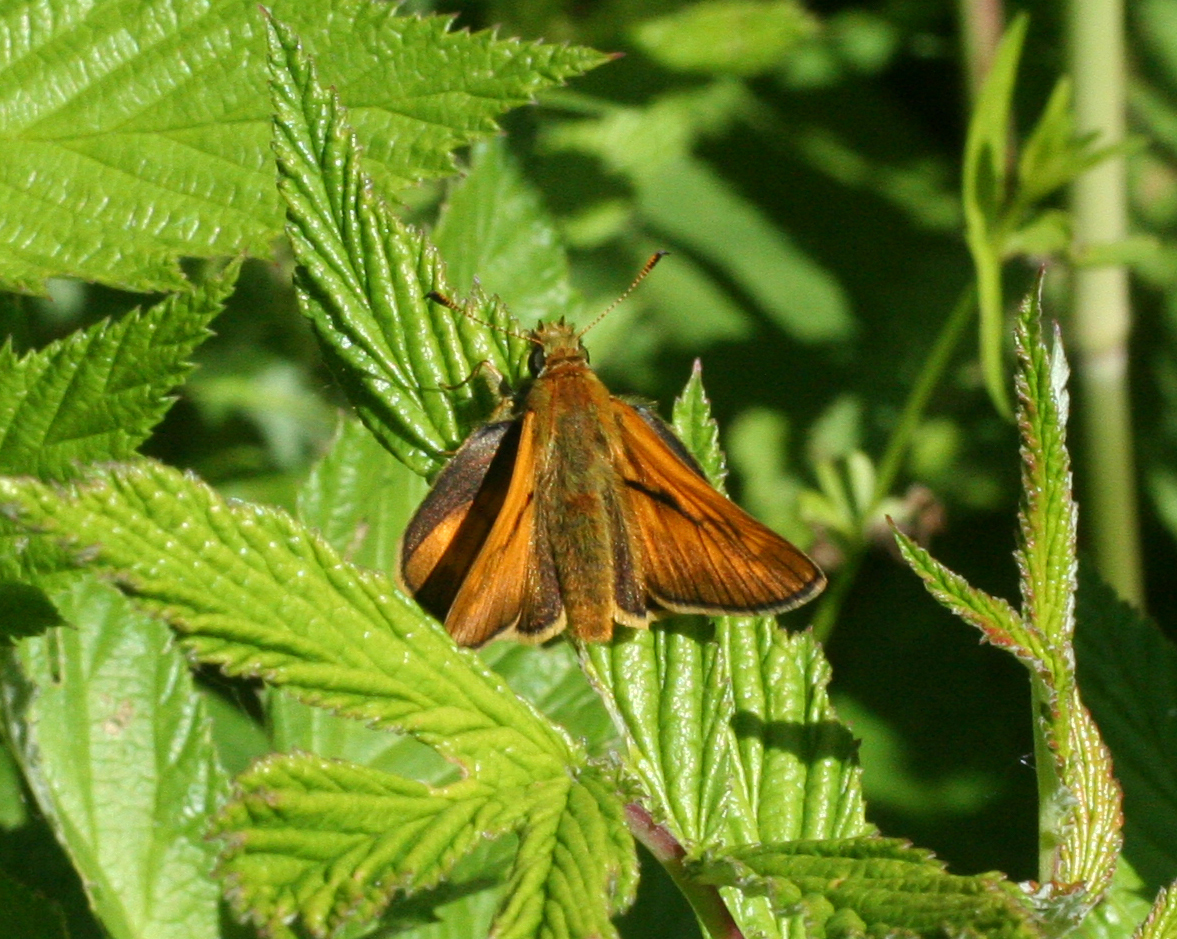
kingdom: Animalia
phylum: Arthropoda
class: Insecta
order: Lepidoptera
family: Hesperiidae
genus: Ochlodes
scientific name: Ochlodes venata
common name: Large skipper
